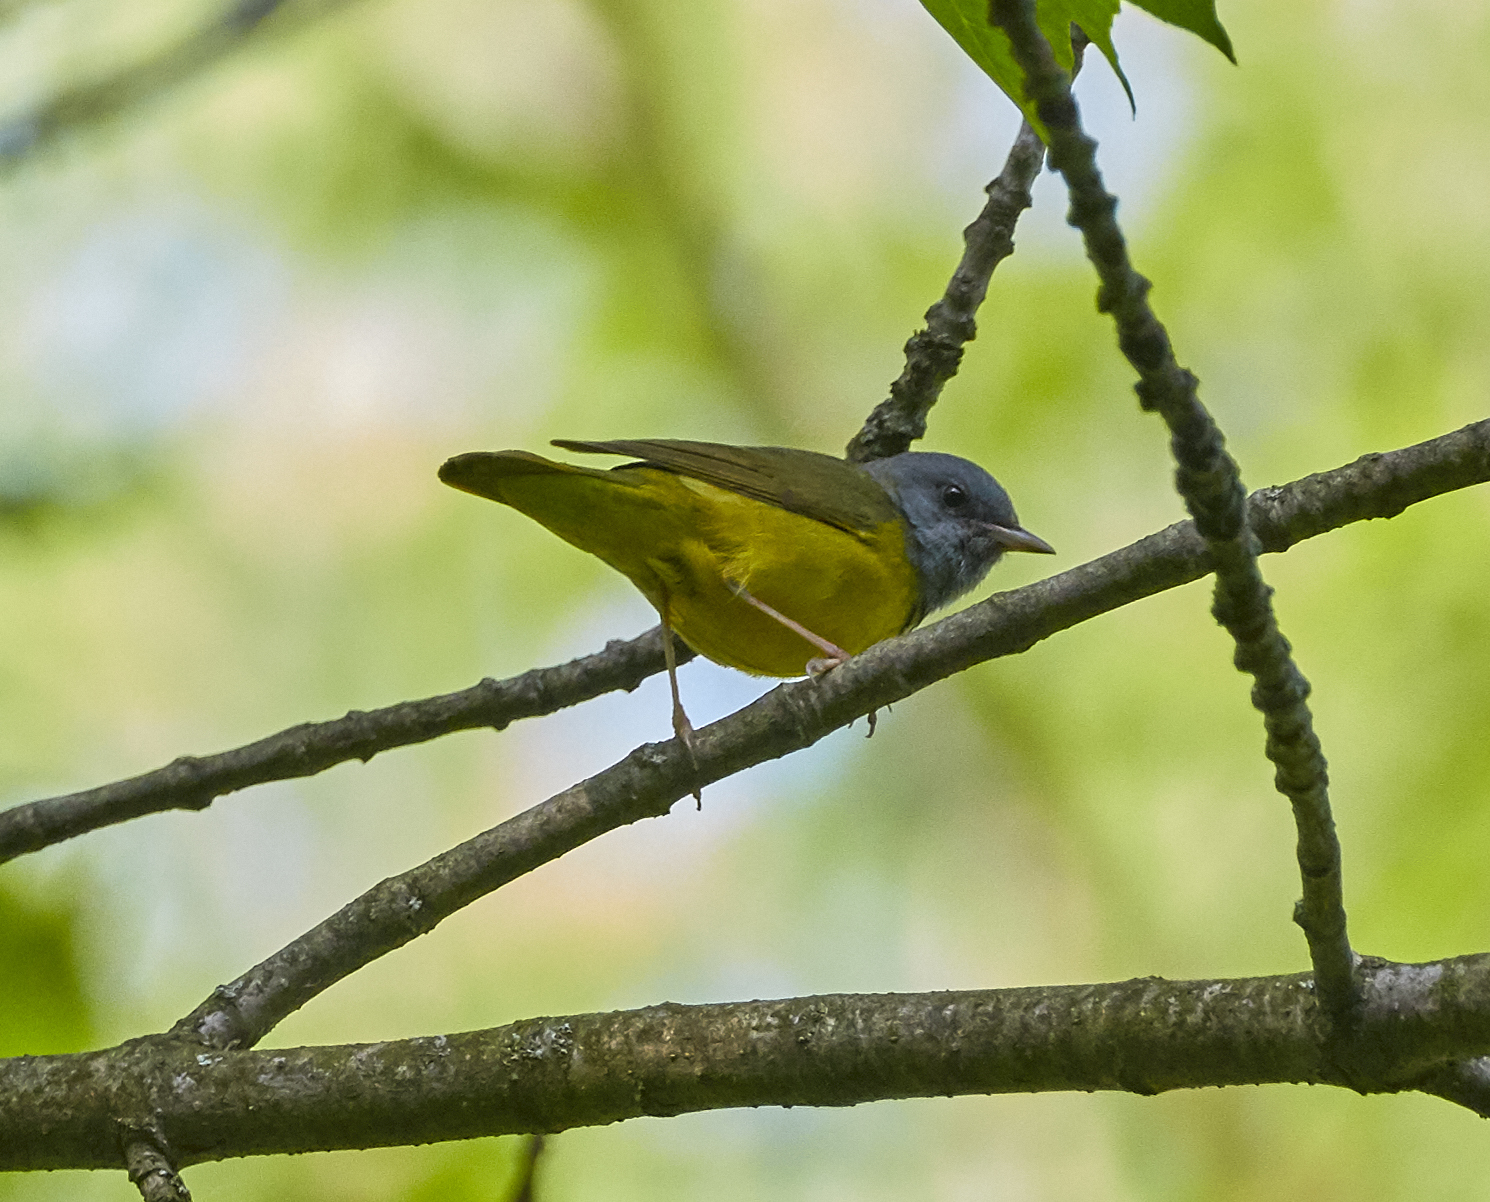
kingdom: Animalia
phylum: Chordata
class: Aves
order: Passeriformes
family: Parulidae
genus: Geothlypis
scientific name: Geothlypis philadelphia
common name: Mourning warbler
